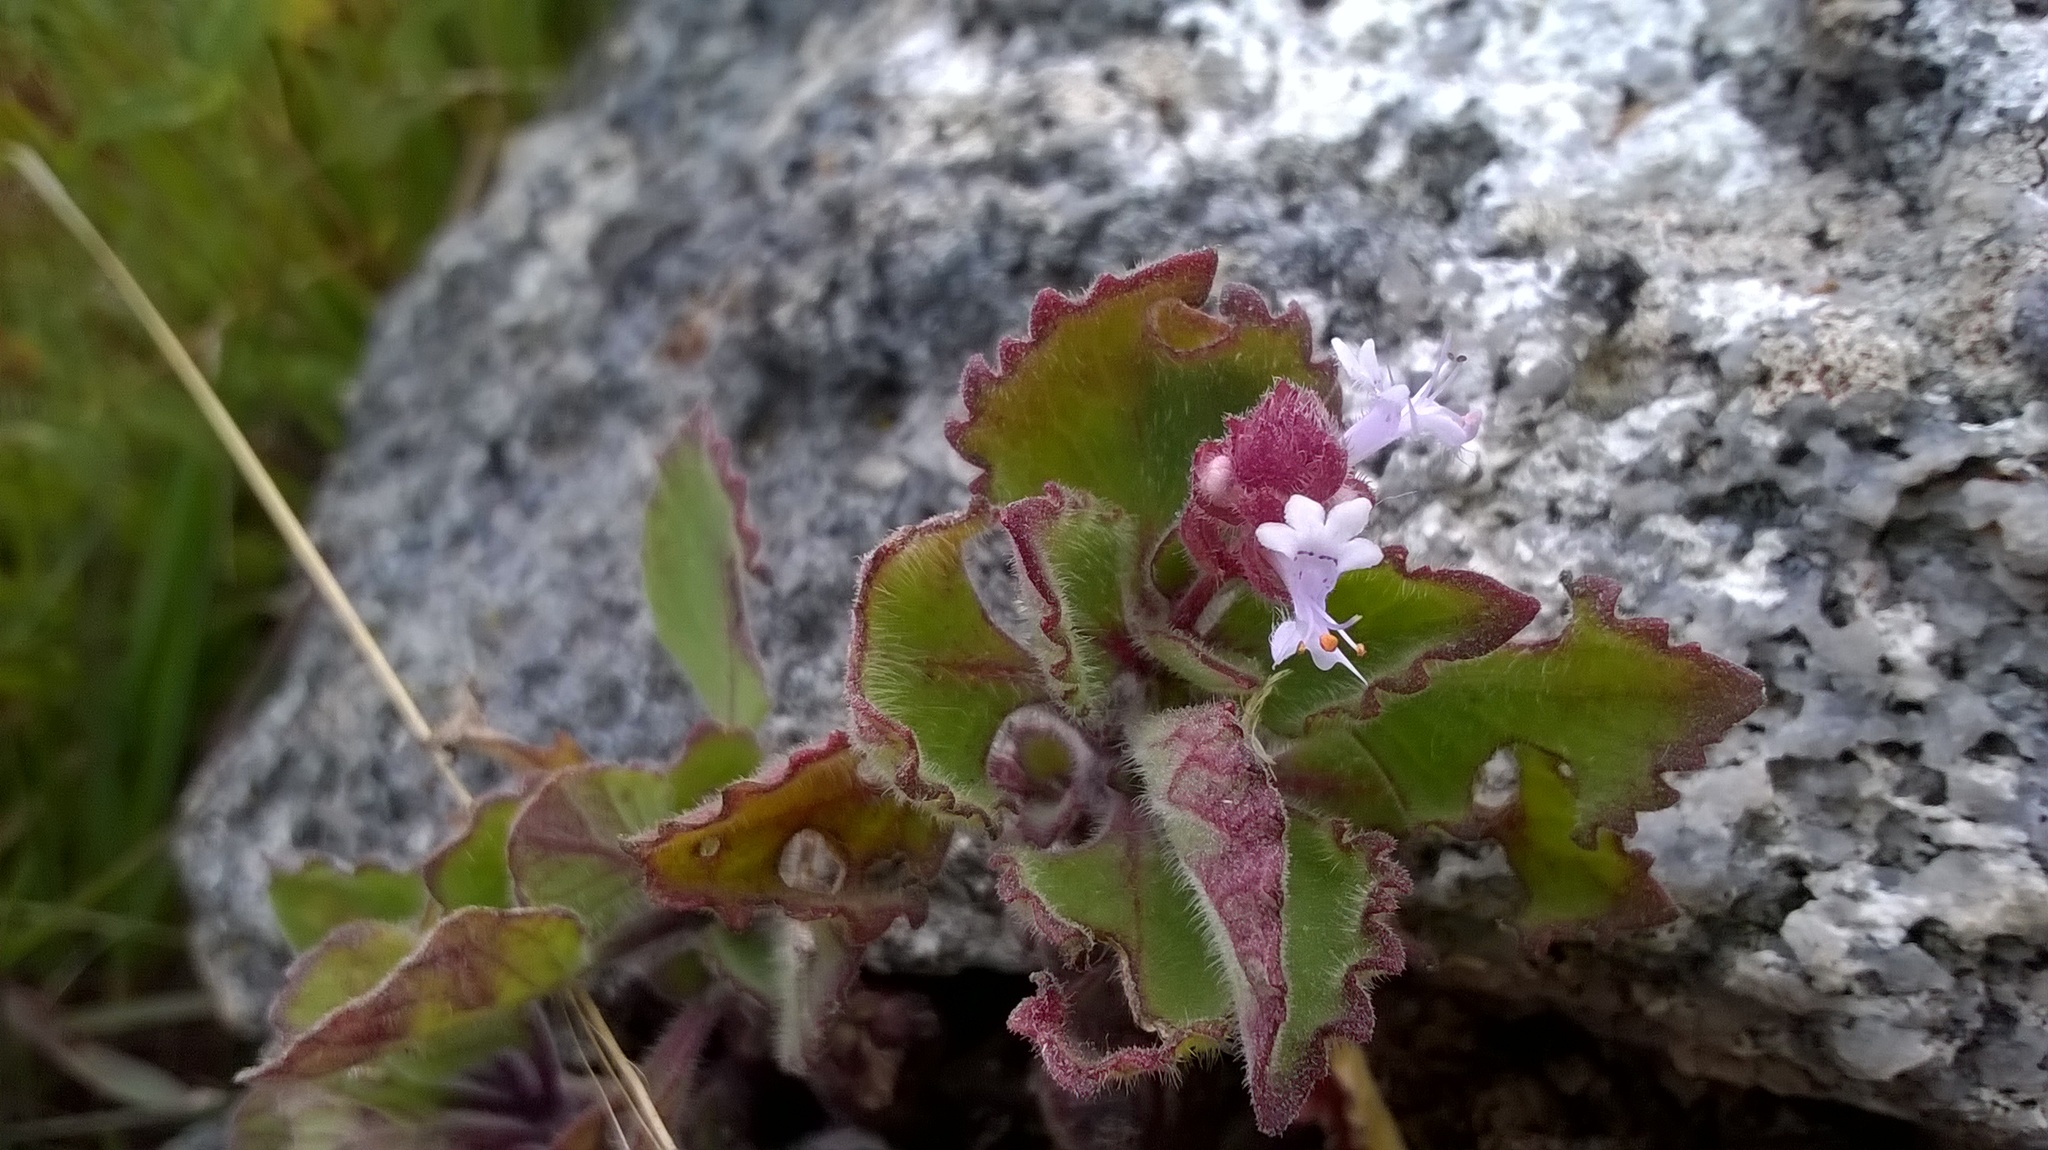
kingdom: Plantae
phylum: Tracheophyta
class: Magnoliopsida
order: Lamiales
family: Lamiaceae
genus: Aeollanthus
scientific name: Aeollanthus buchnerianus
